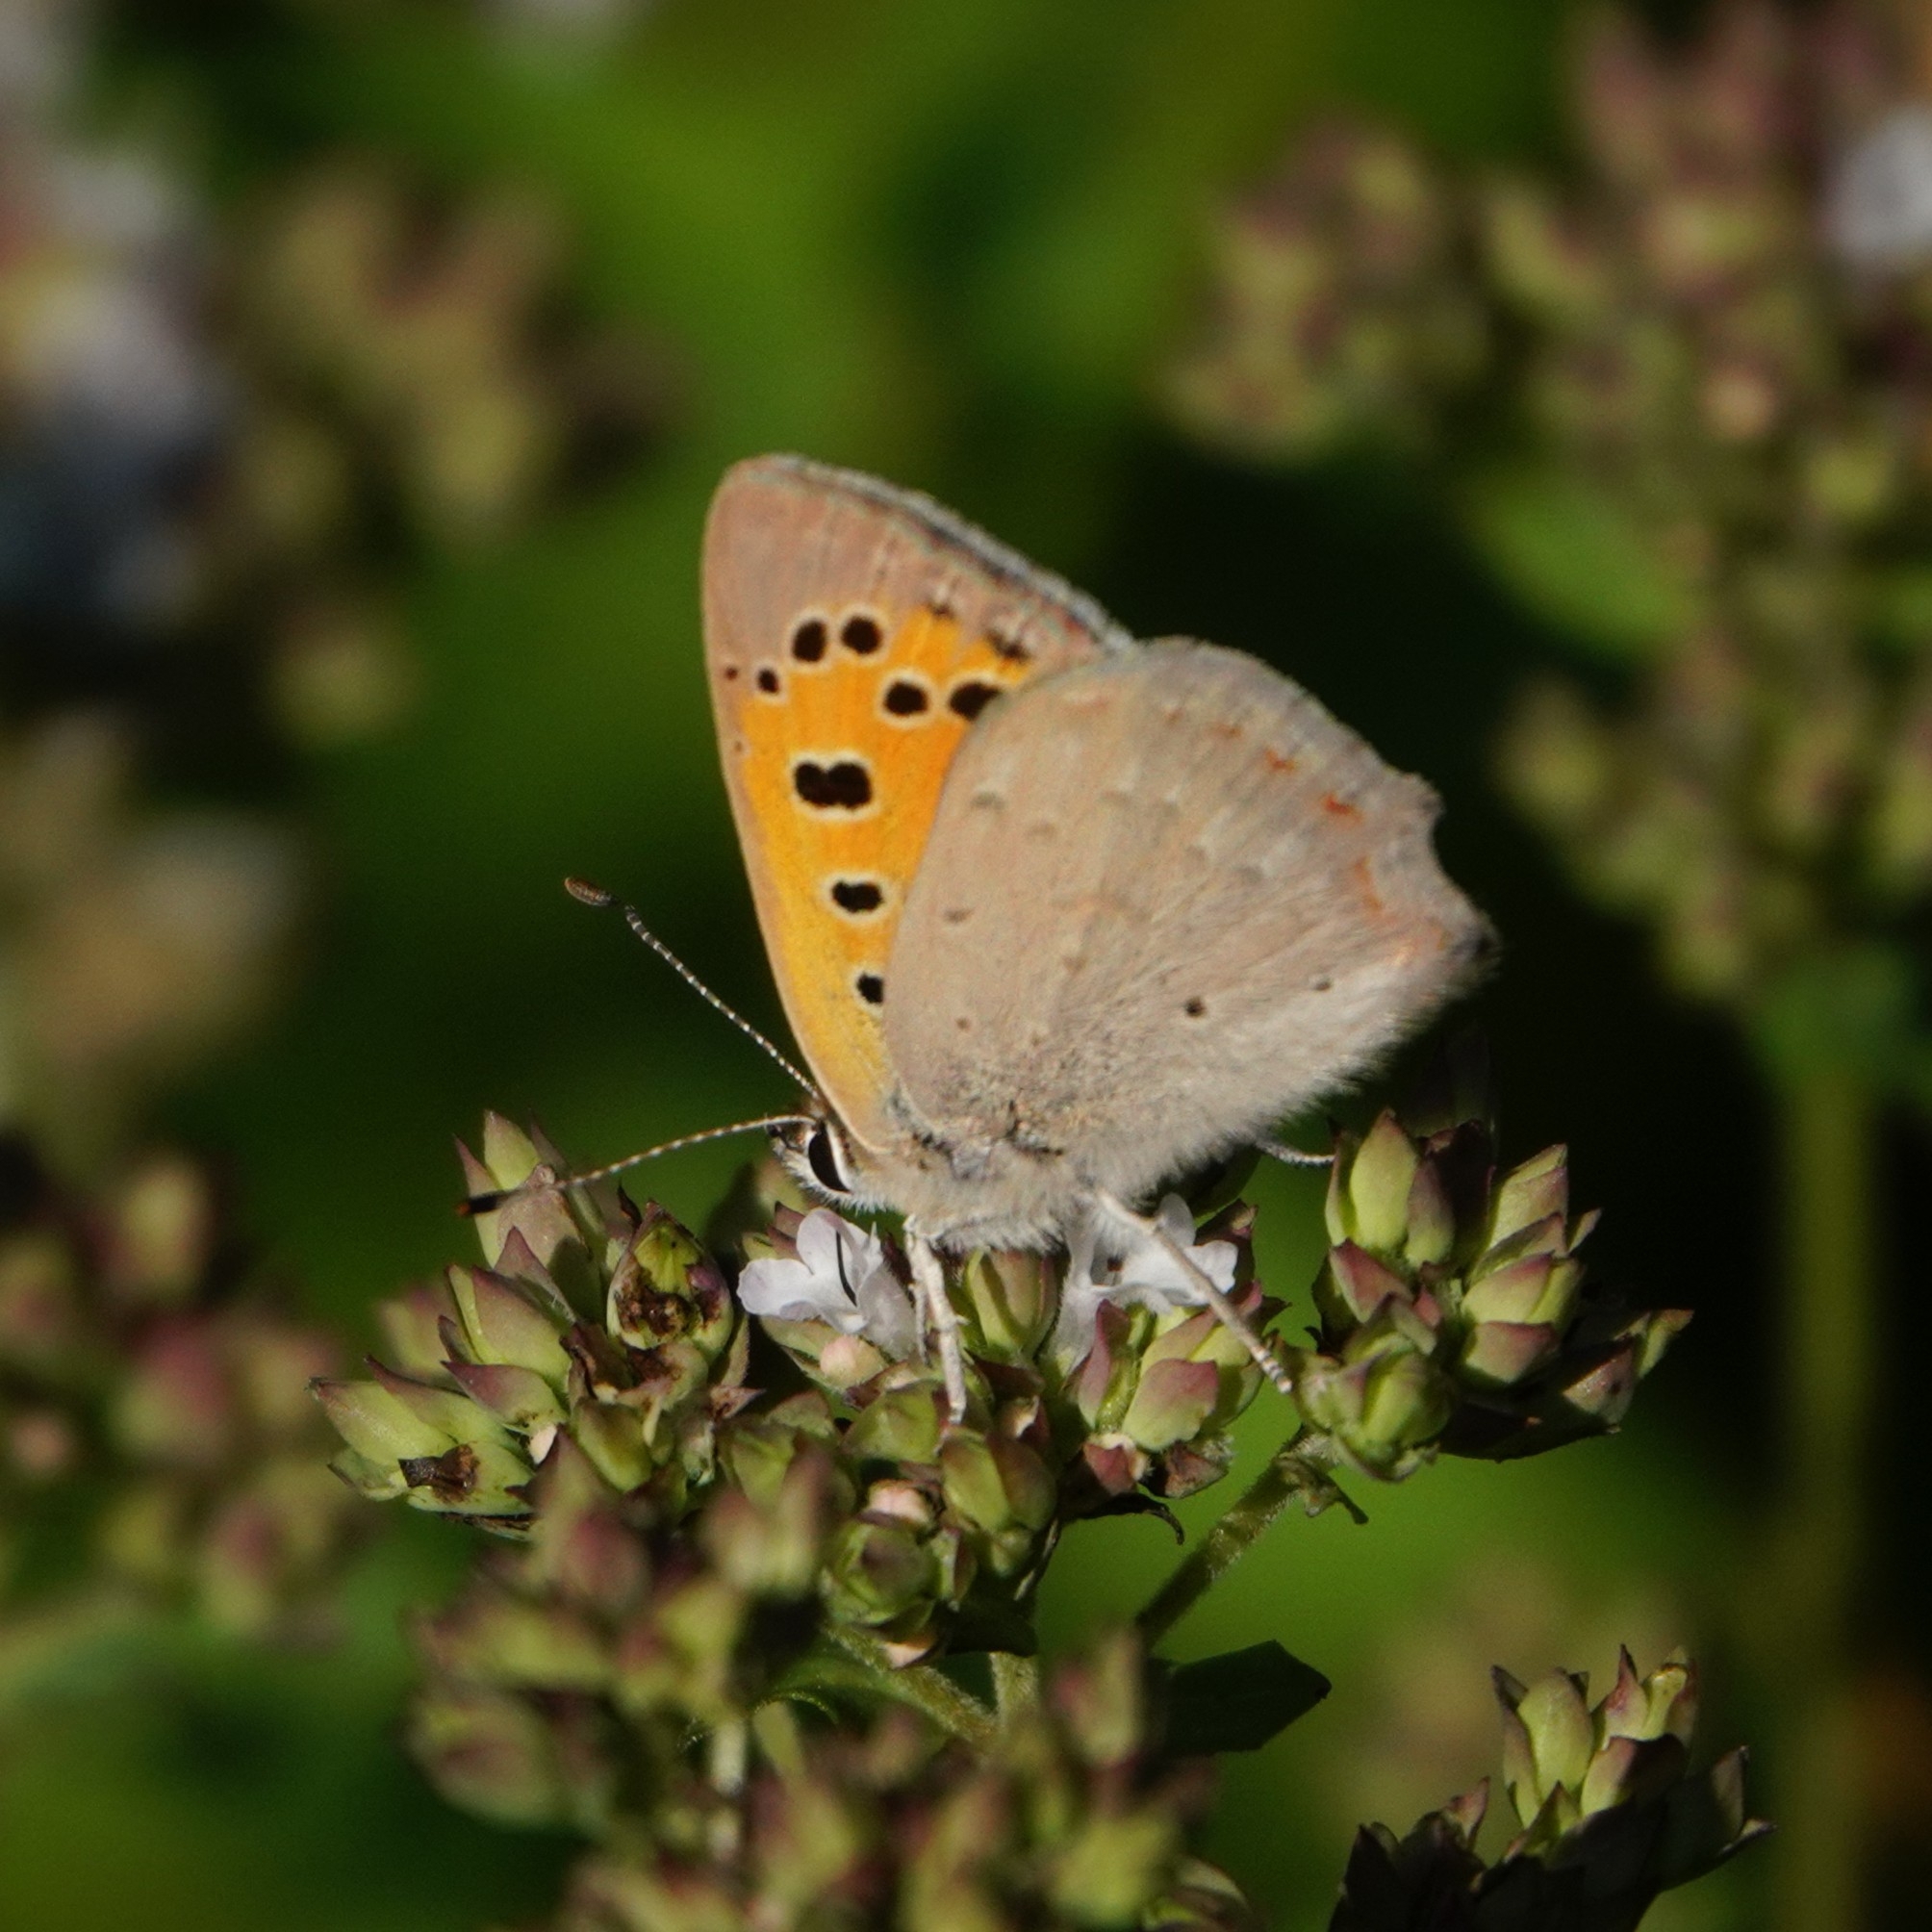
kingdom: Animalia
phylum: Arthropoda
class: Insecta
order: Lepidoptera
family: Lycaenidae
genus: Lycaena
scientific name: Lycaena phlaeas
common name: Small copper
